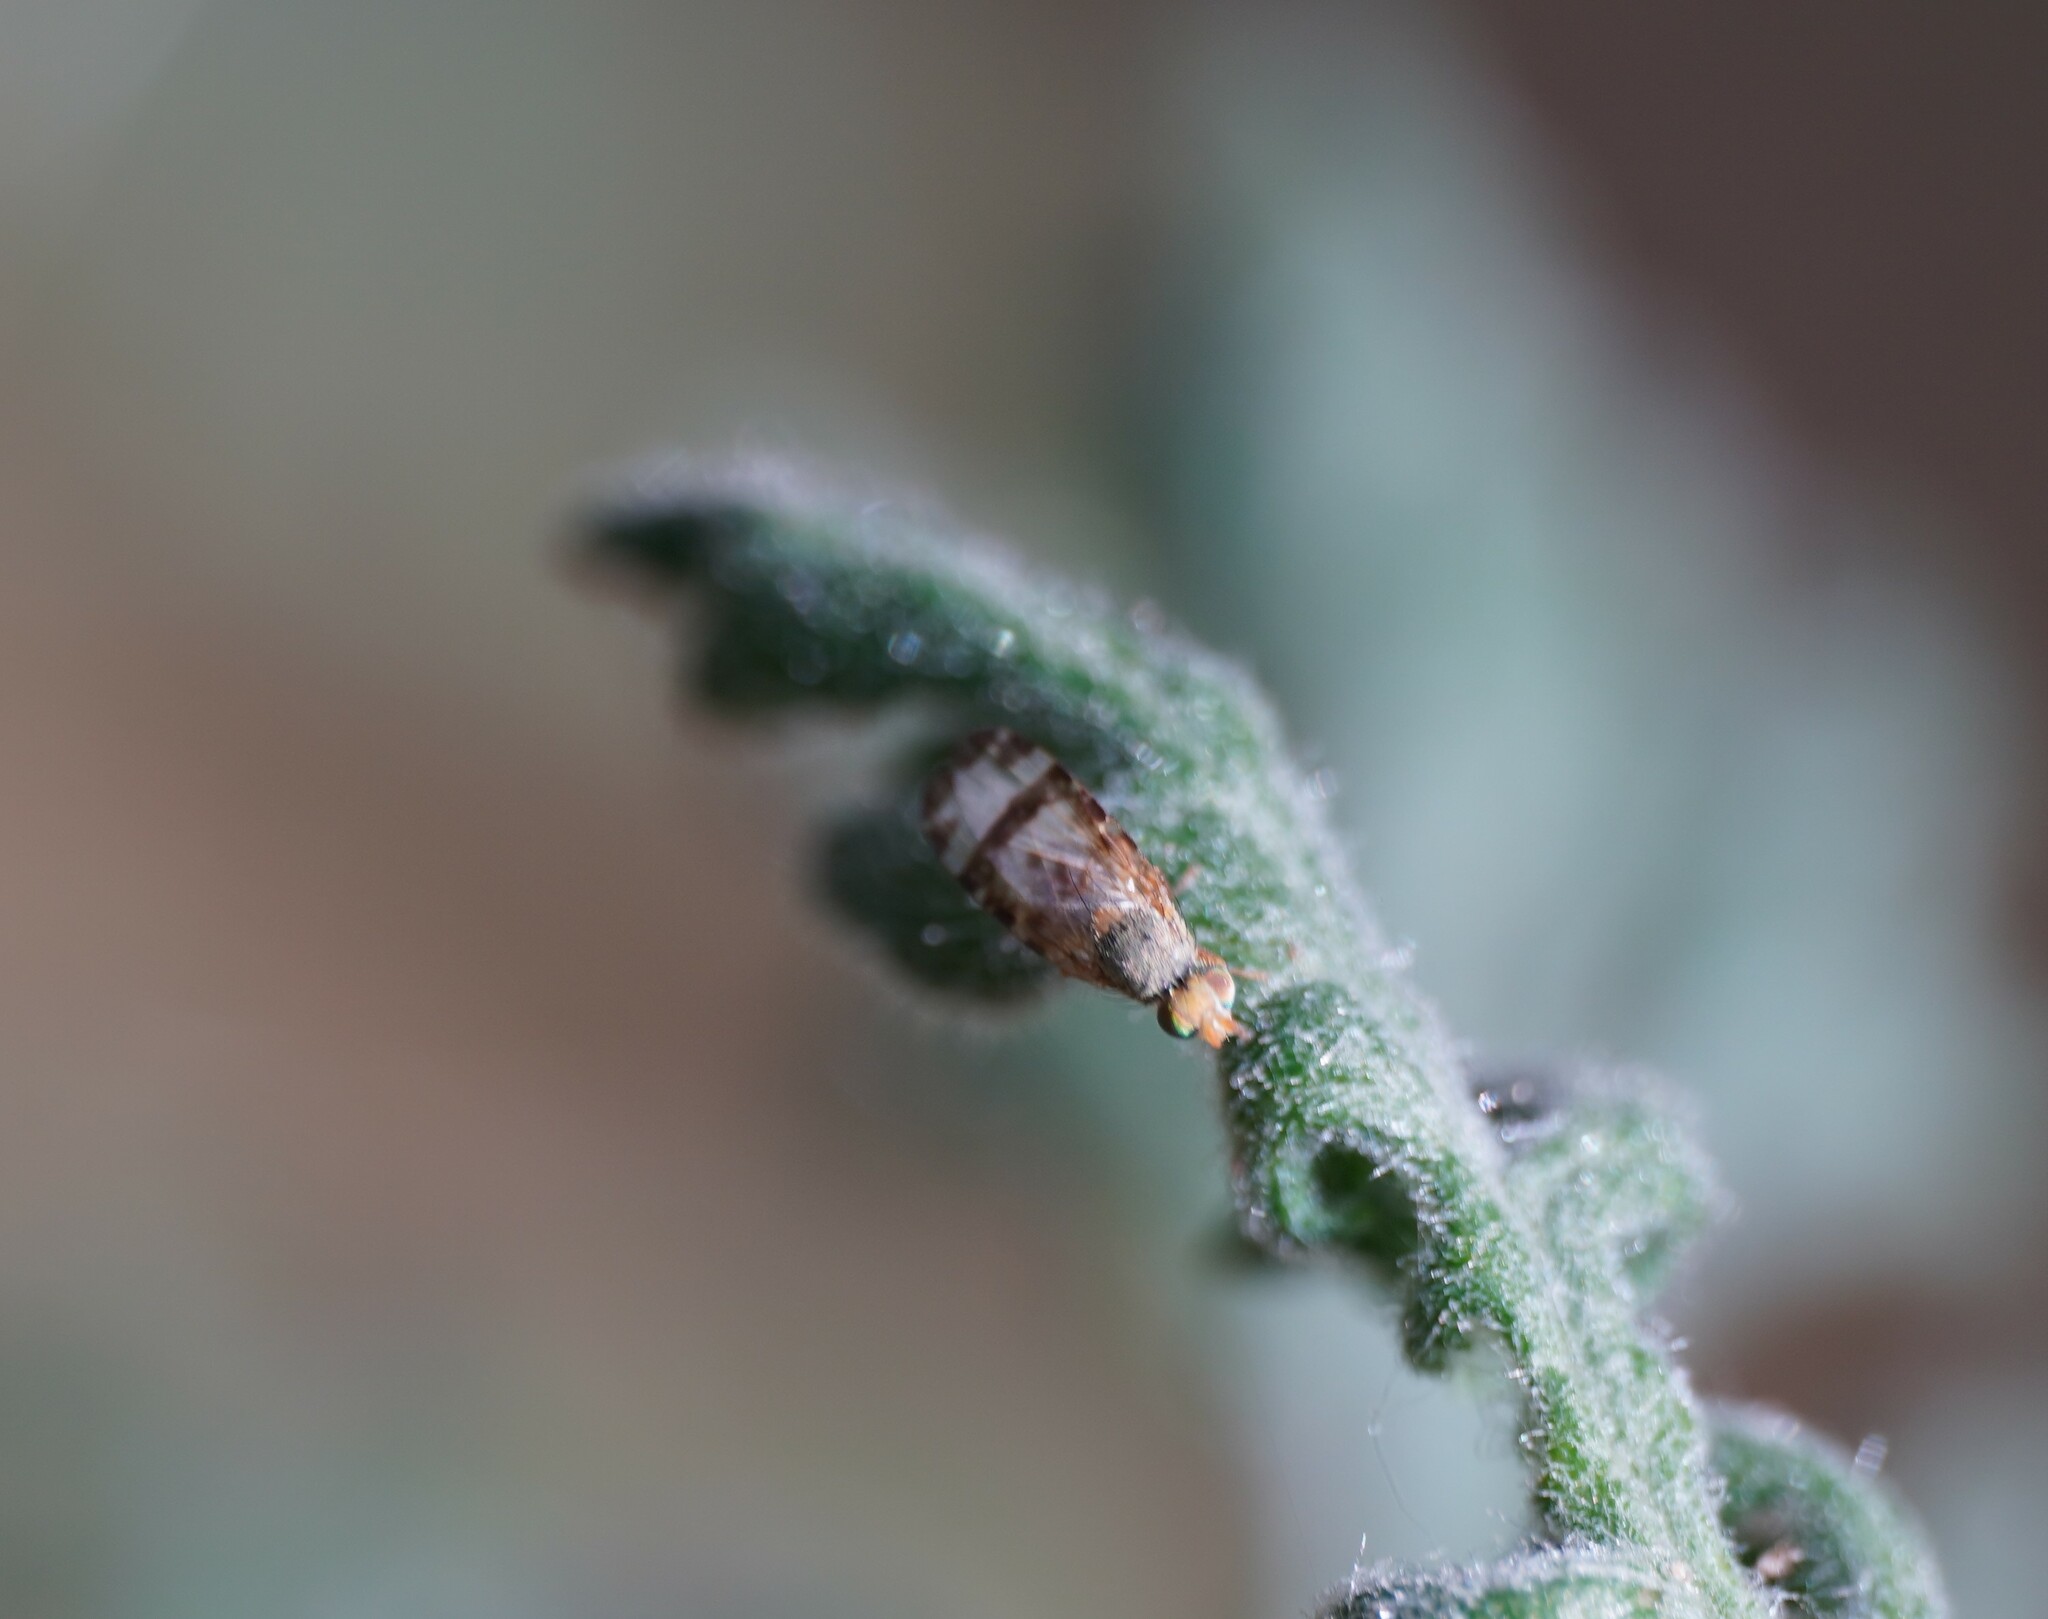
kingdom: Animalia
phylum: Arthropoda
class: Insecta
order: Diptera
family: Tephritidae
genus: Sphenella
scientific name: Sphenella marginata
